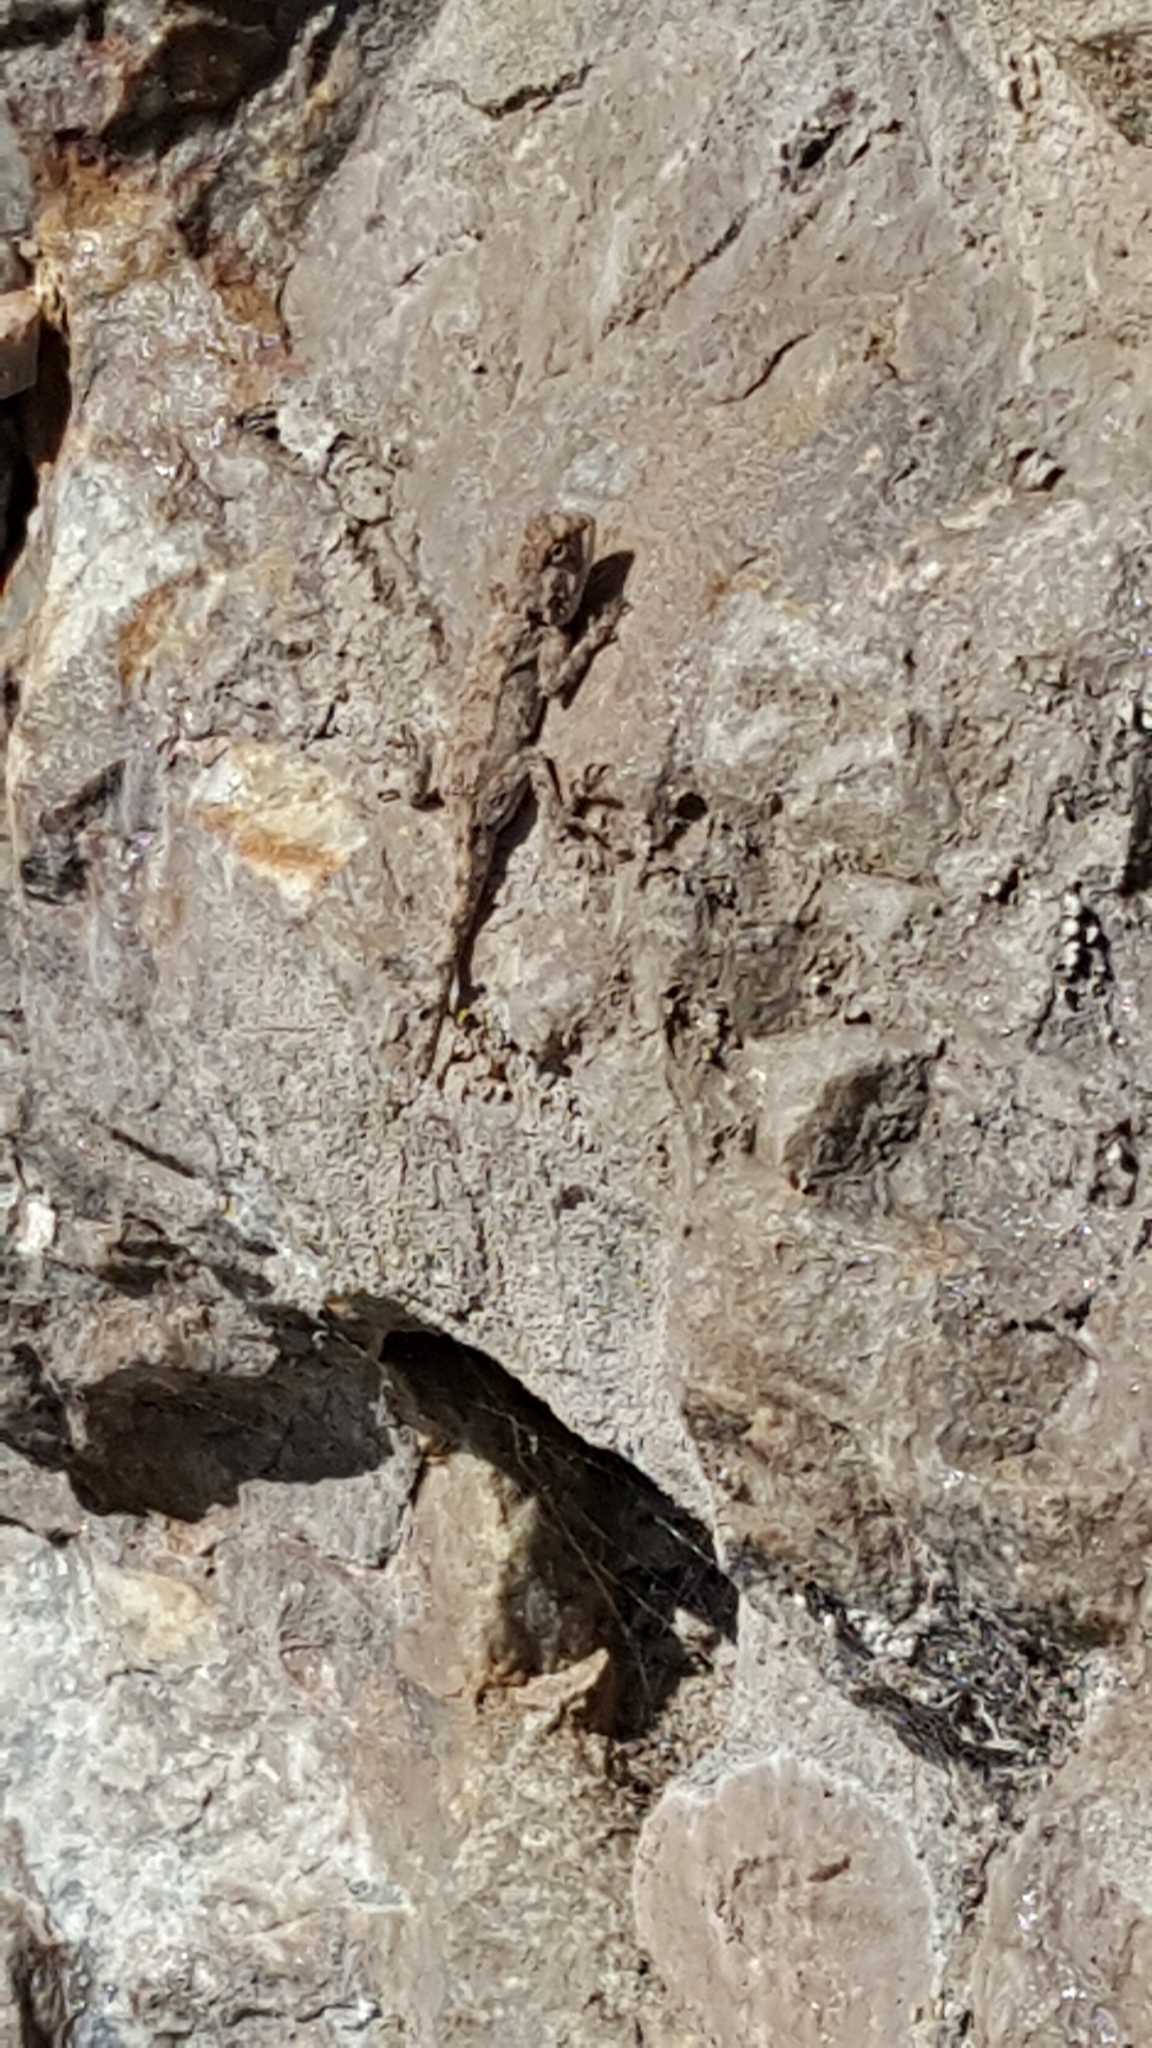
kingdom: Animalia
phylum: Chordata
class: Squamata
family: Agamidae
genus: Agama
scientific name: Agama atra
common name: Southern african rock agama
